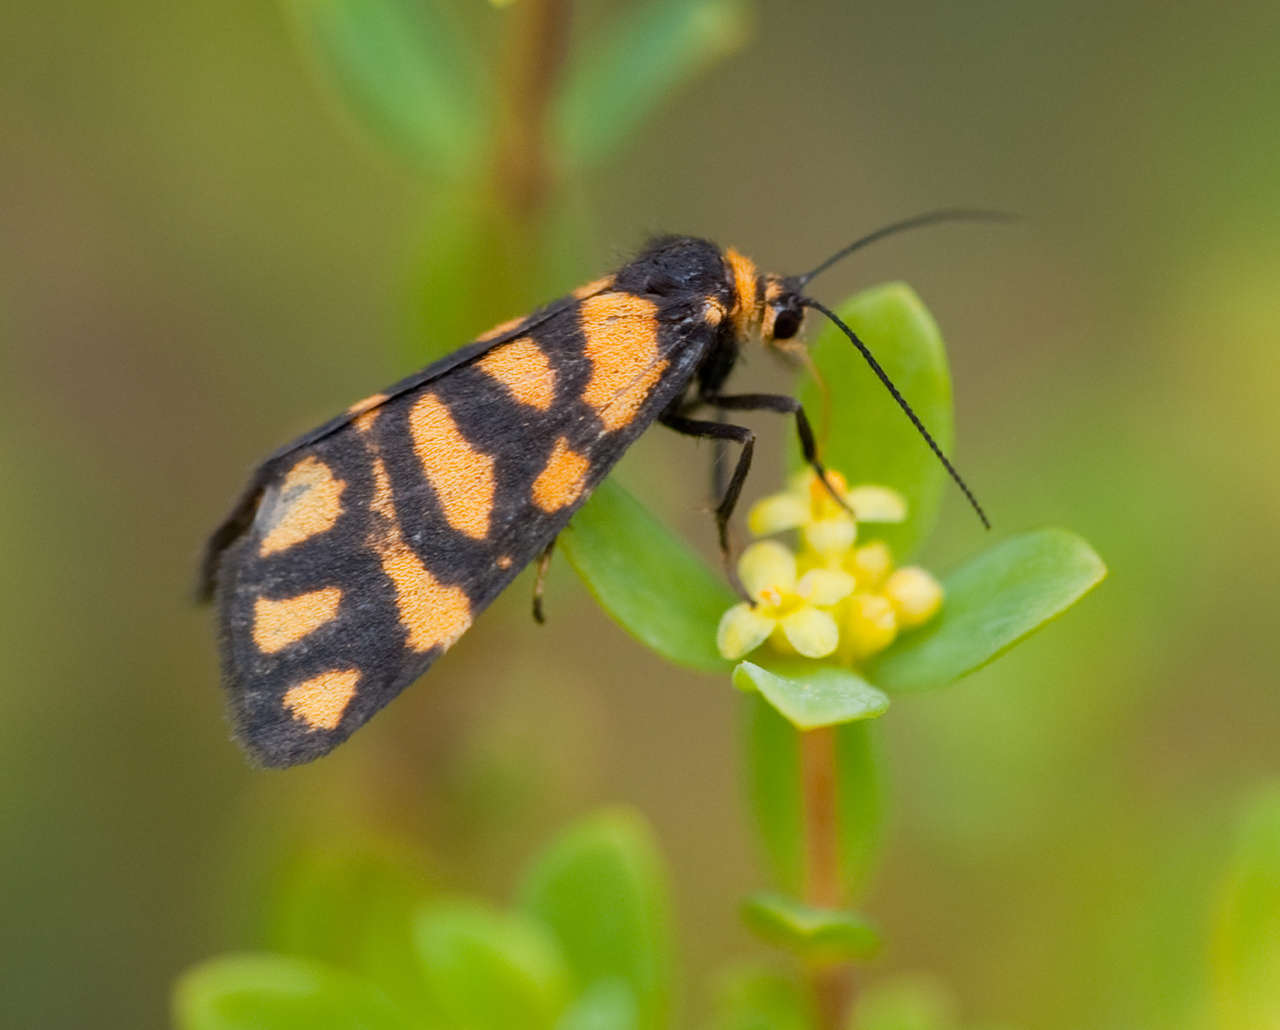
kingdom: Animalia
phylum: Arthropoda
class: Insecta
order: Lepidoptera
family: Erebidae
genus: Asura
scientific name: Asura lydia
